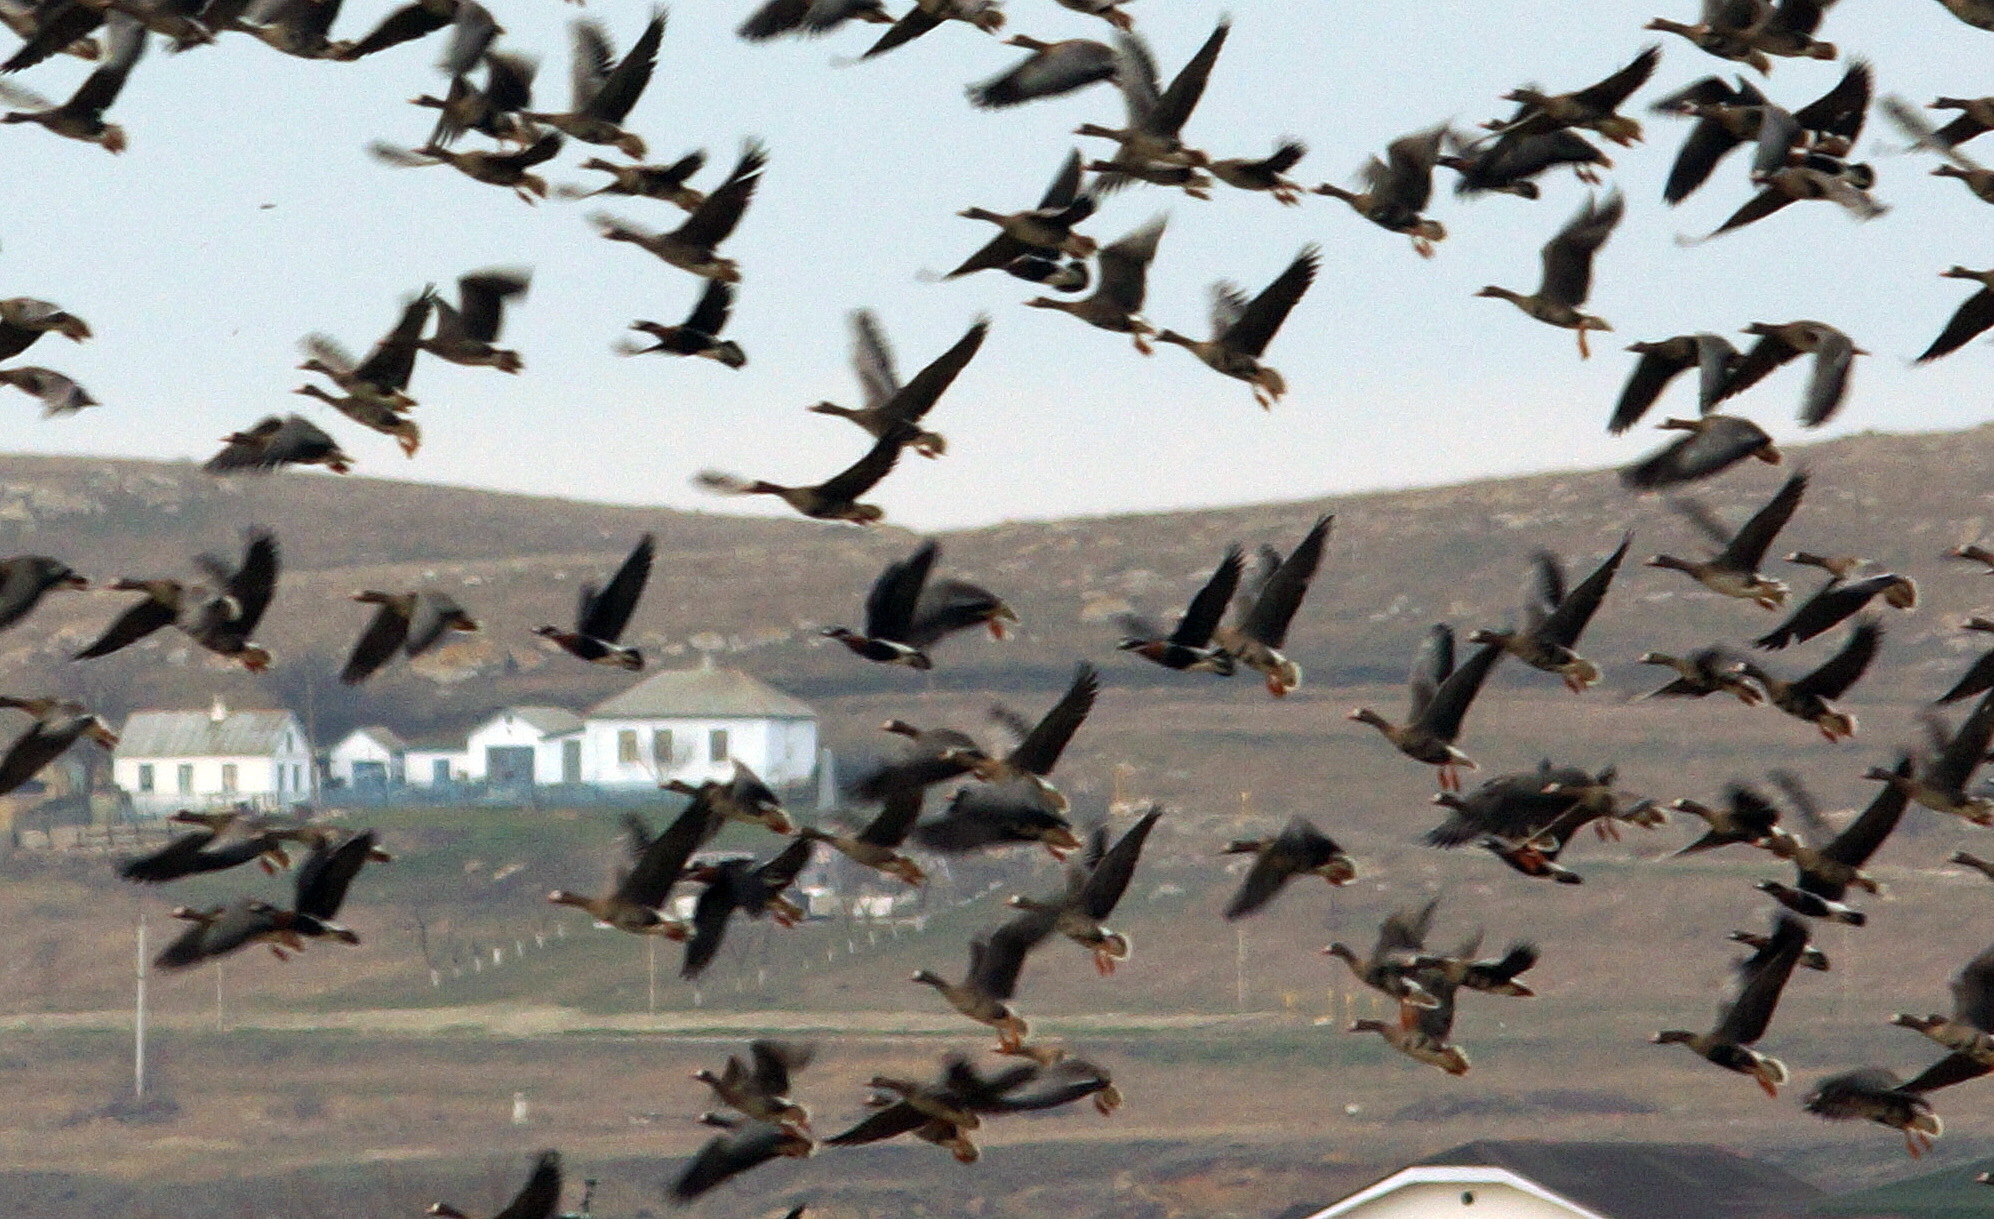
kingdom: Animalia
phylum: Chordata
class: Aves
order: Anseriformes
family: Anatidae
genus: Anser
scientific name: Anser albifrons
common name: Greater white-fronted goose
